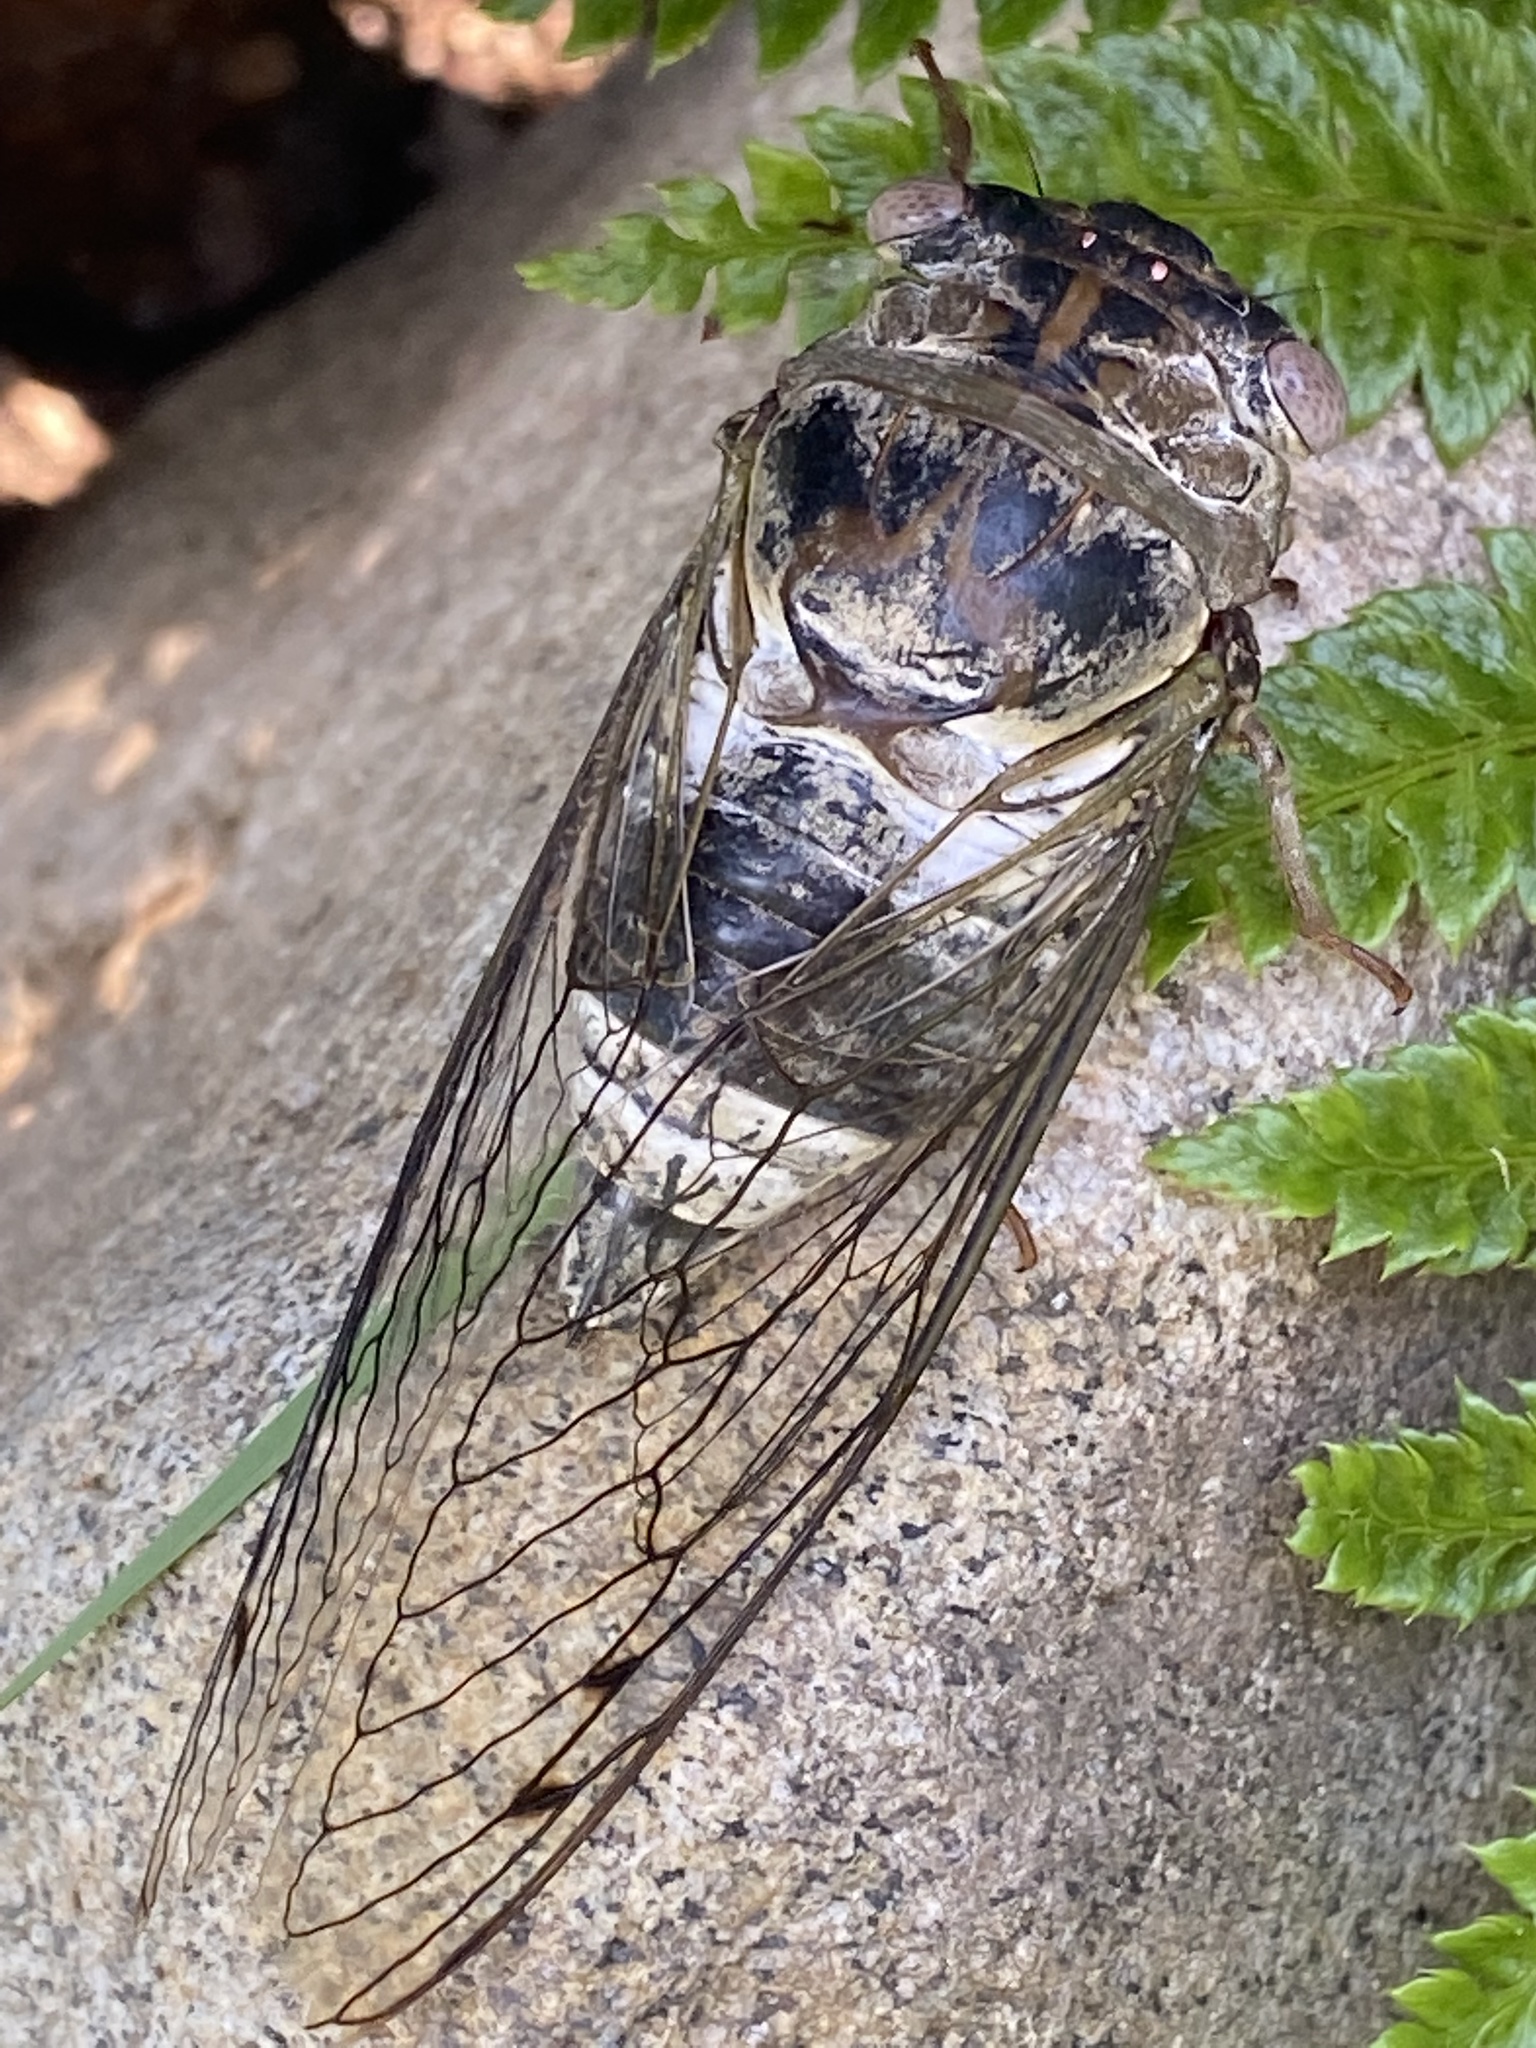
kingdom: Animalia
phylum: Arthropoda
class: Insecta
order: Hemiptera
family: Cicadidae
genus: Diceroprocta
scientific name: Diceroprocta grossa
